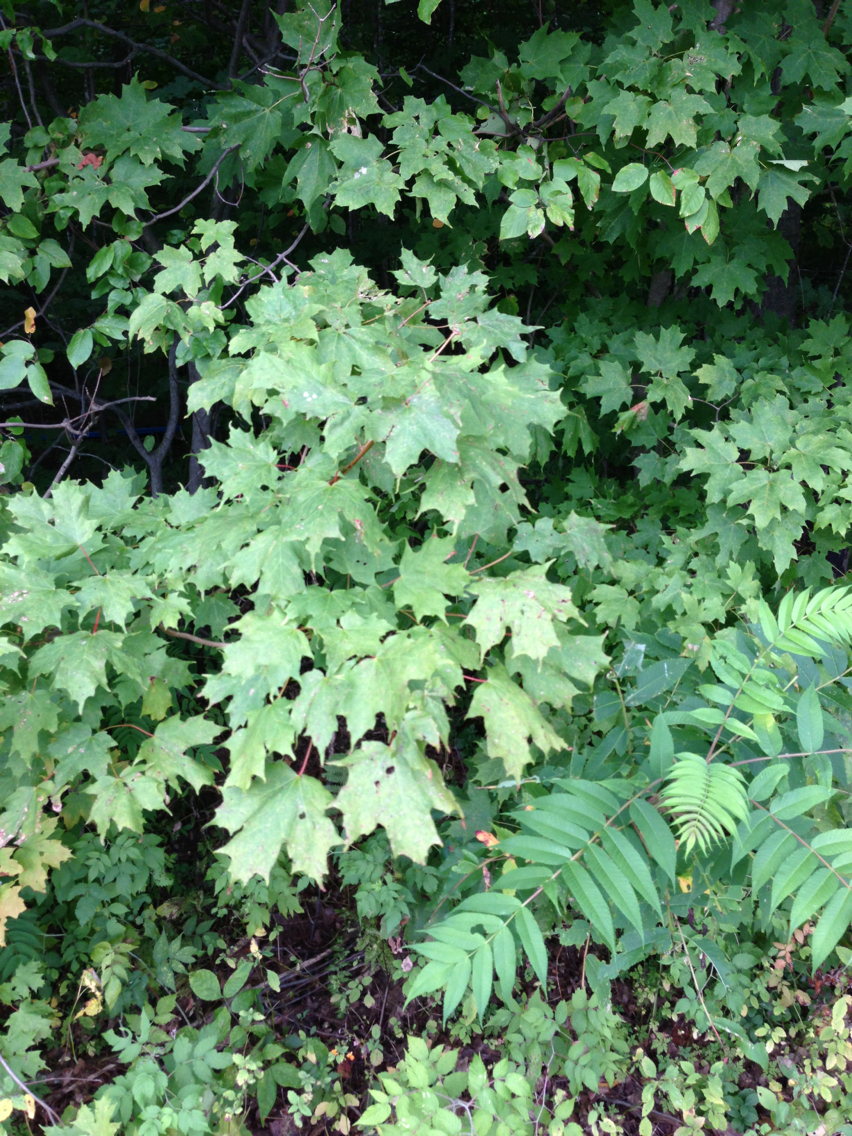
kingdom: Plantae
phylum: Tracheophyta
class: Magnoliopsida
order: Sapindales
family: Sapindaceae
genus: Acer
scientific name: Acer saccharum
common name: Sugar maple
